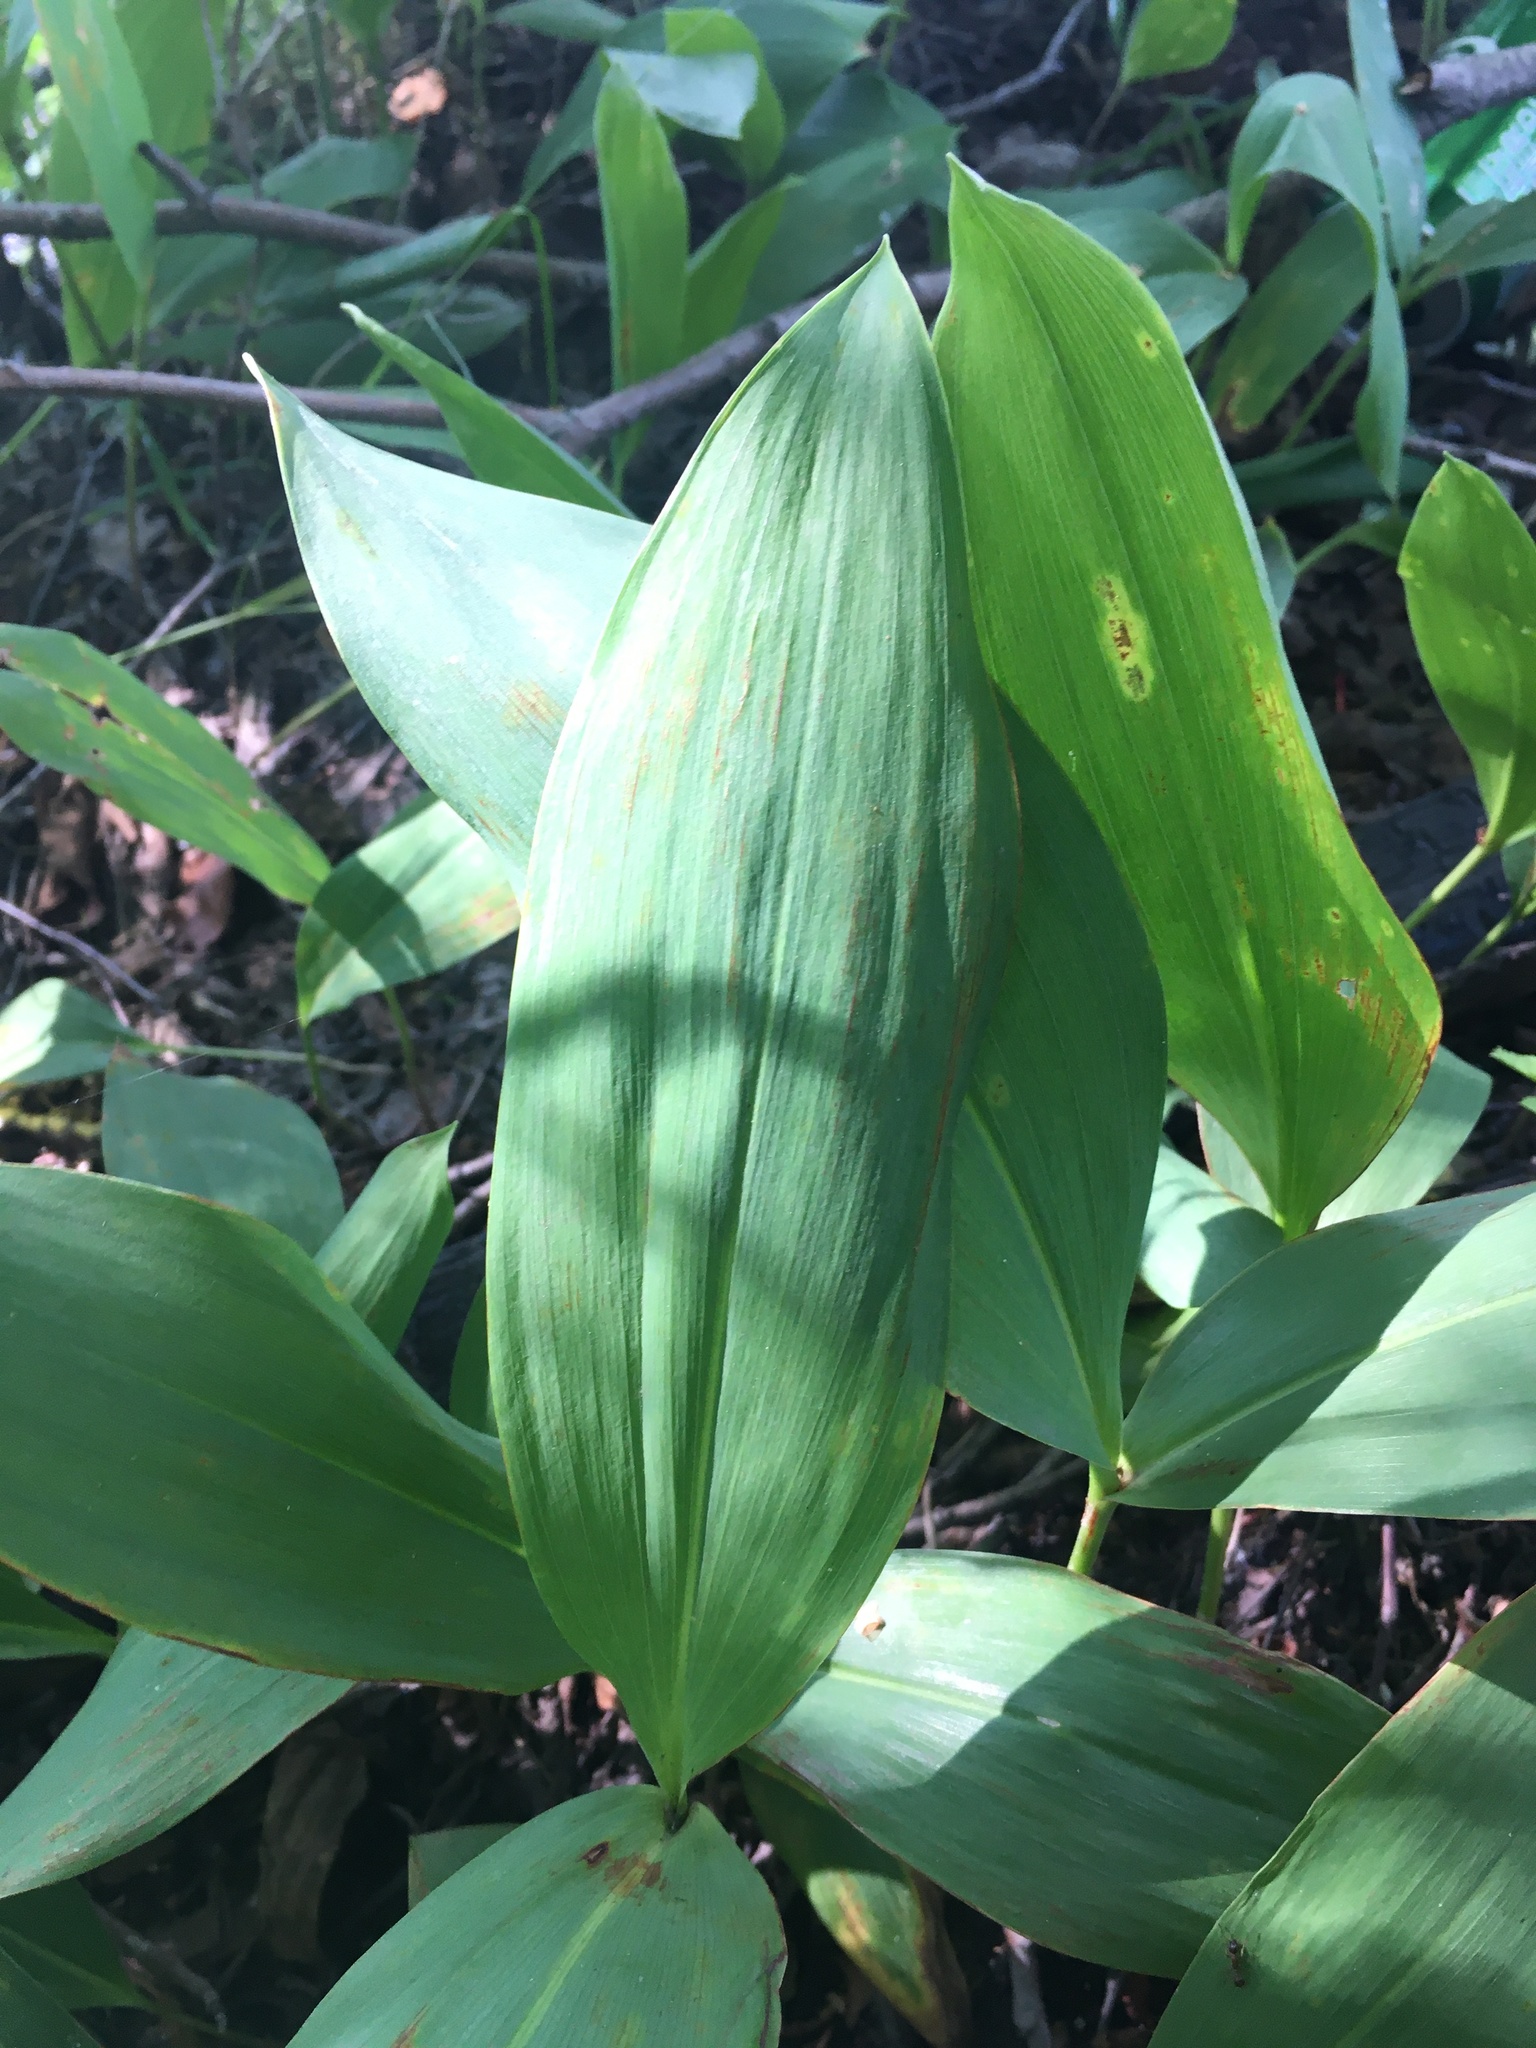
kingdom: Plantae
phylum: Tracheophyta
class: Liliopsida
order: Asparagales
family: Asparagaceae
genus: Convallaria
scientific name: Convallaria majalis
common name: Lily-of-the-valley
